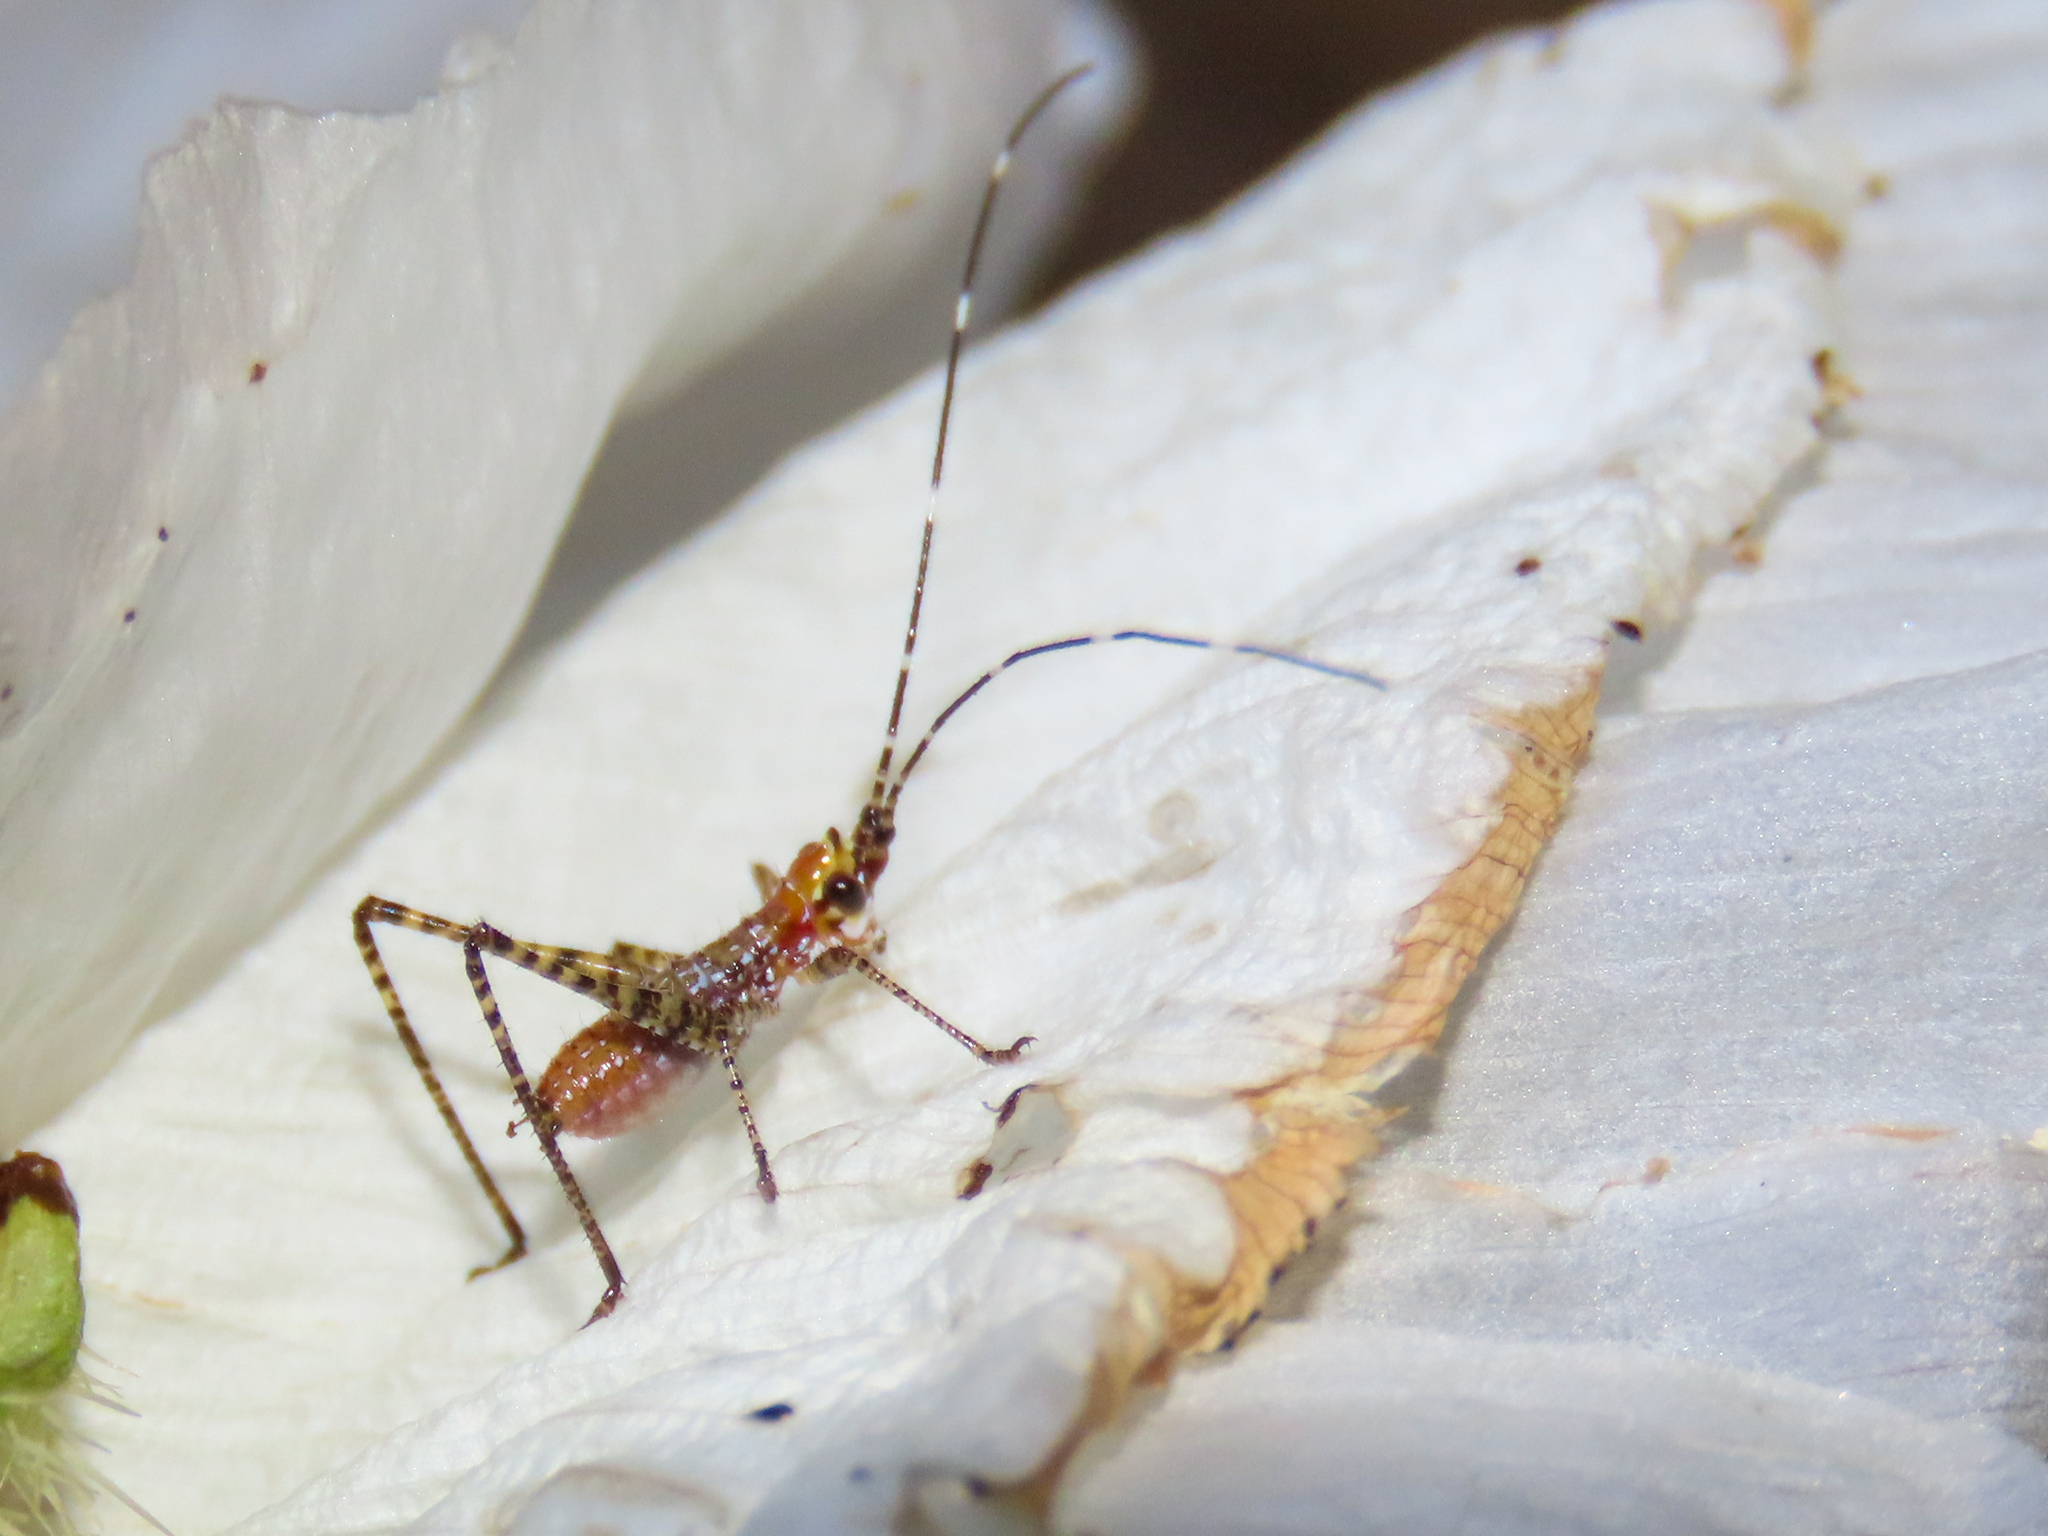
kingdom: Animalia
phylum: Arthropoda
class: Insecta
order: Orthoptera
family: Tettigoniidae
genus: Scudderia
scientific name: Scudderia mexicana
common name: Mexican bush katydid
